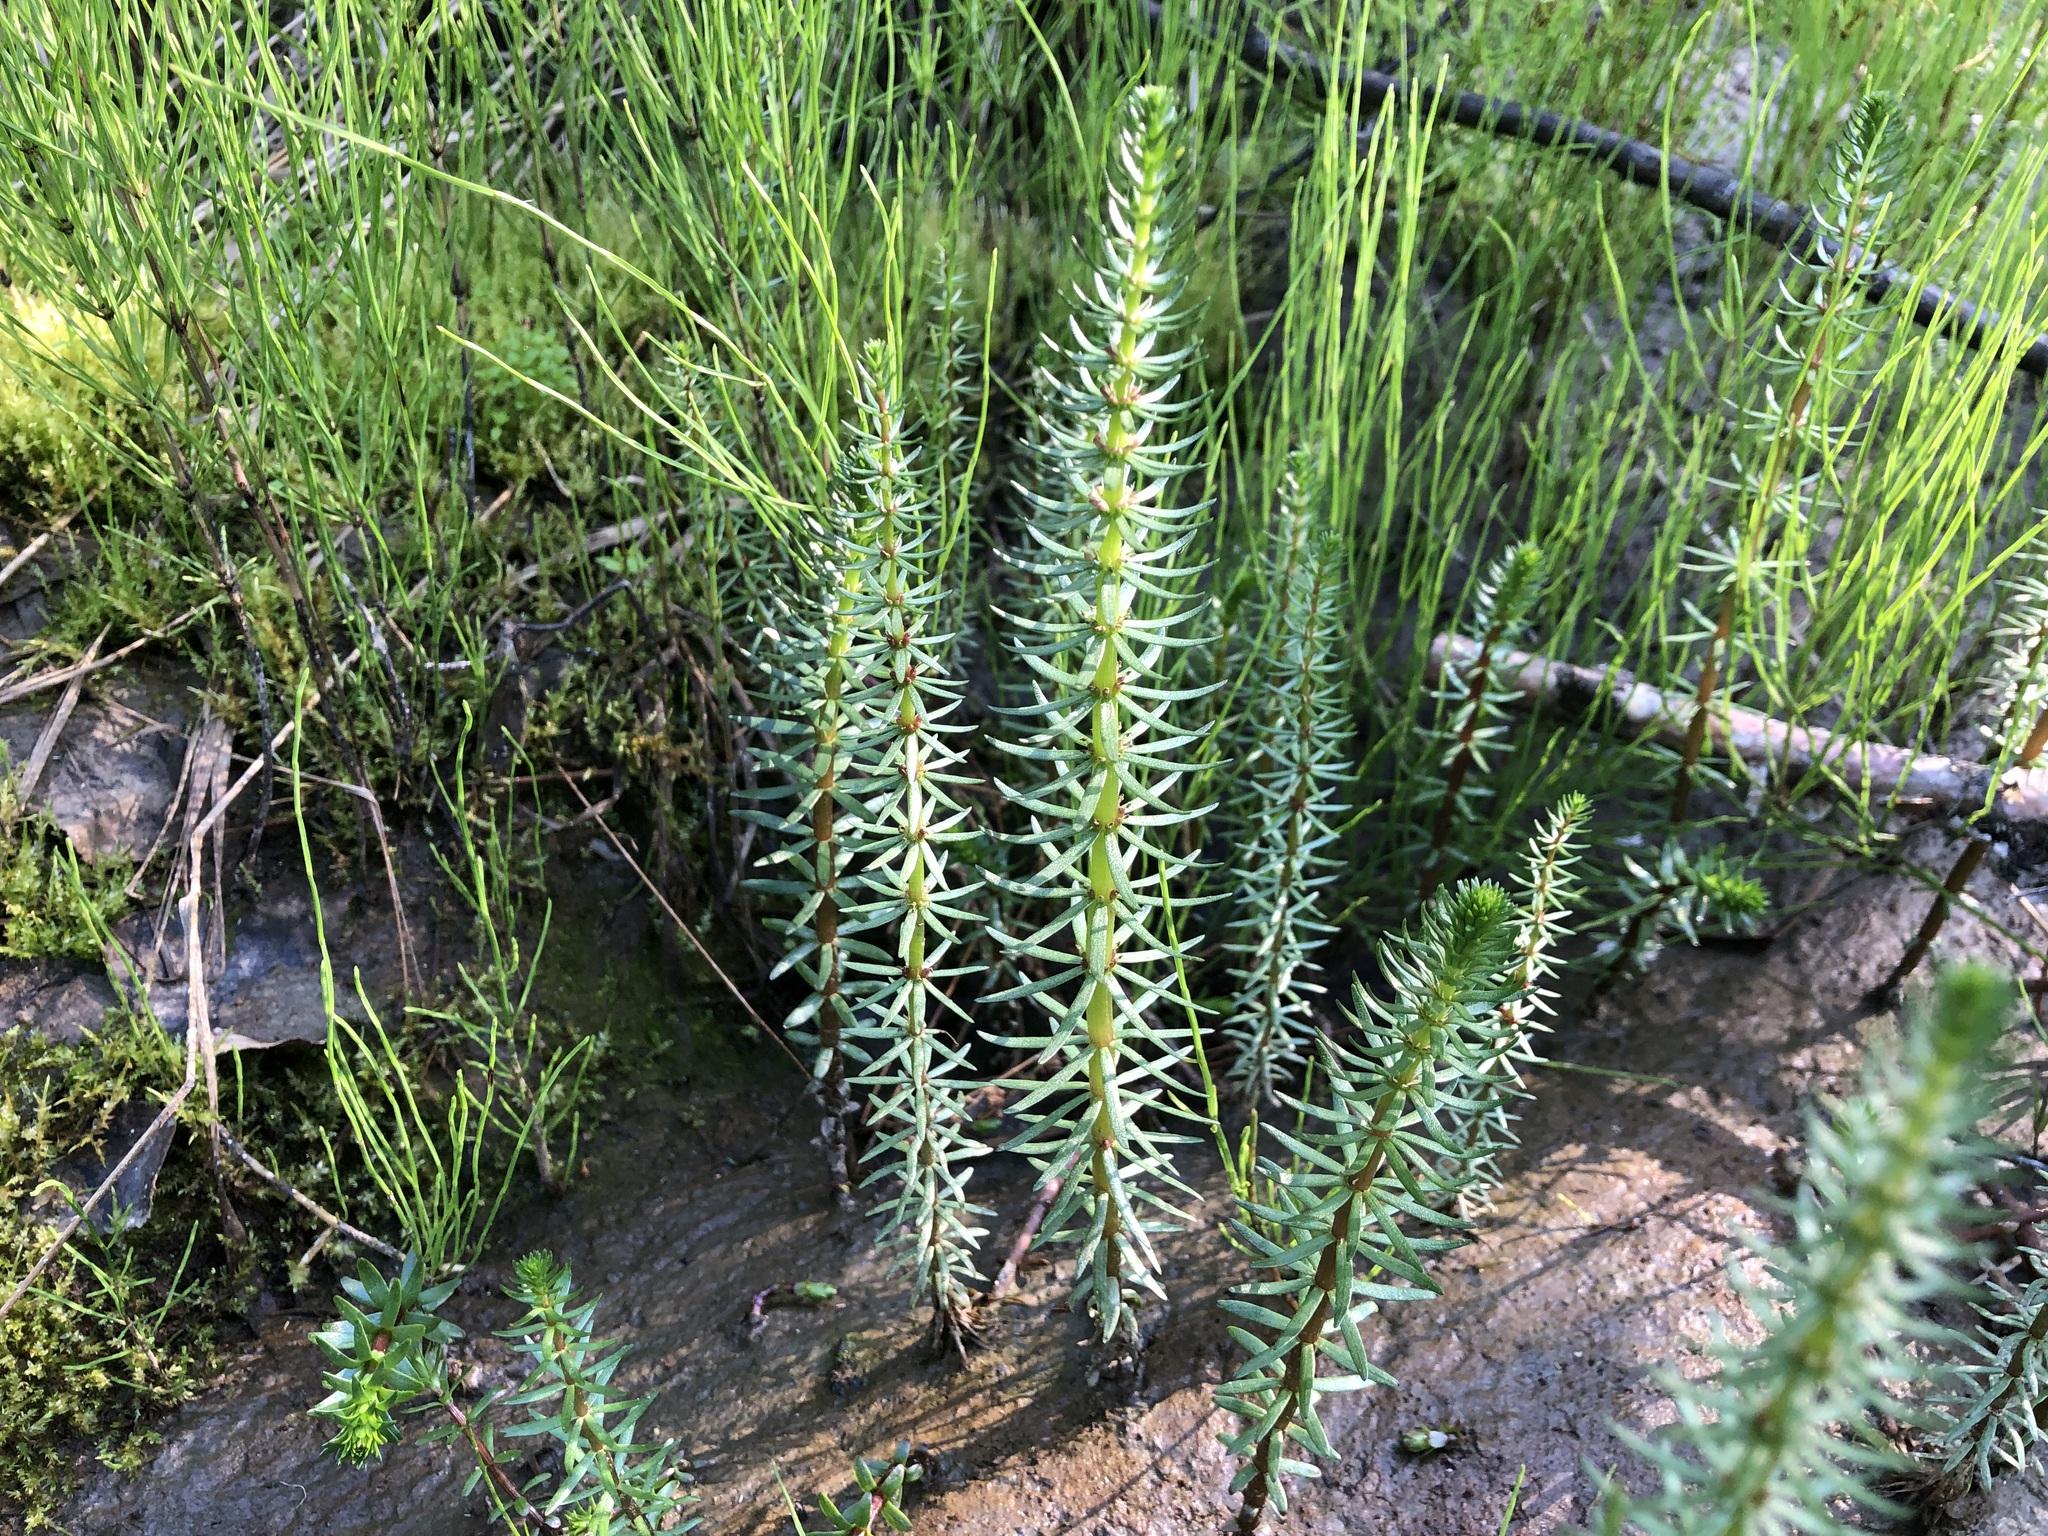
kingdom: Plantae
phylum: Tracheophyta
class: Magnoliopsida
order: Lamiales
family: Plantaginaceae
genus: Hippuris
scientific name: Hippuris vulgaris
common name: Mare's-tail
